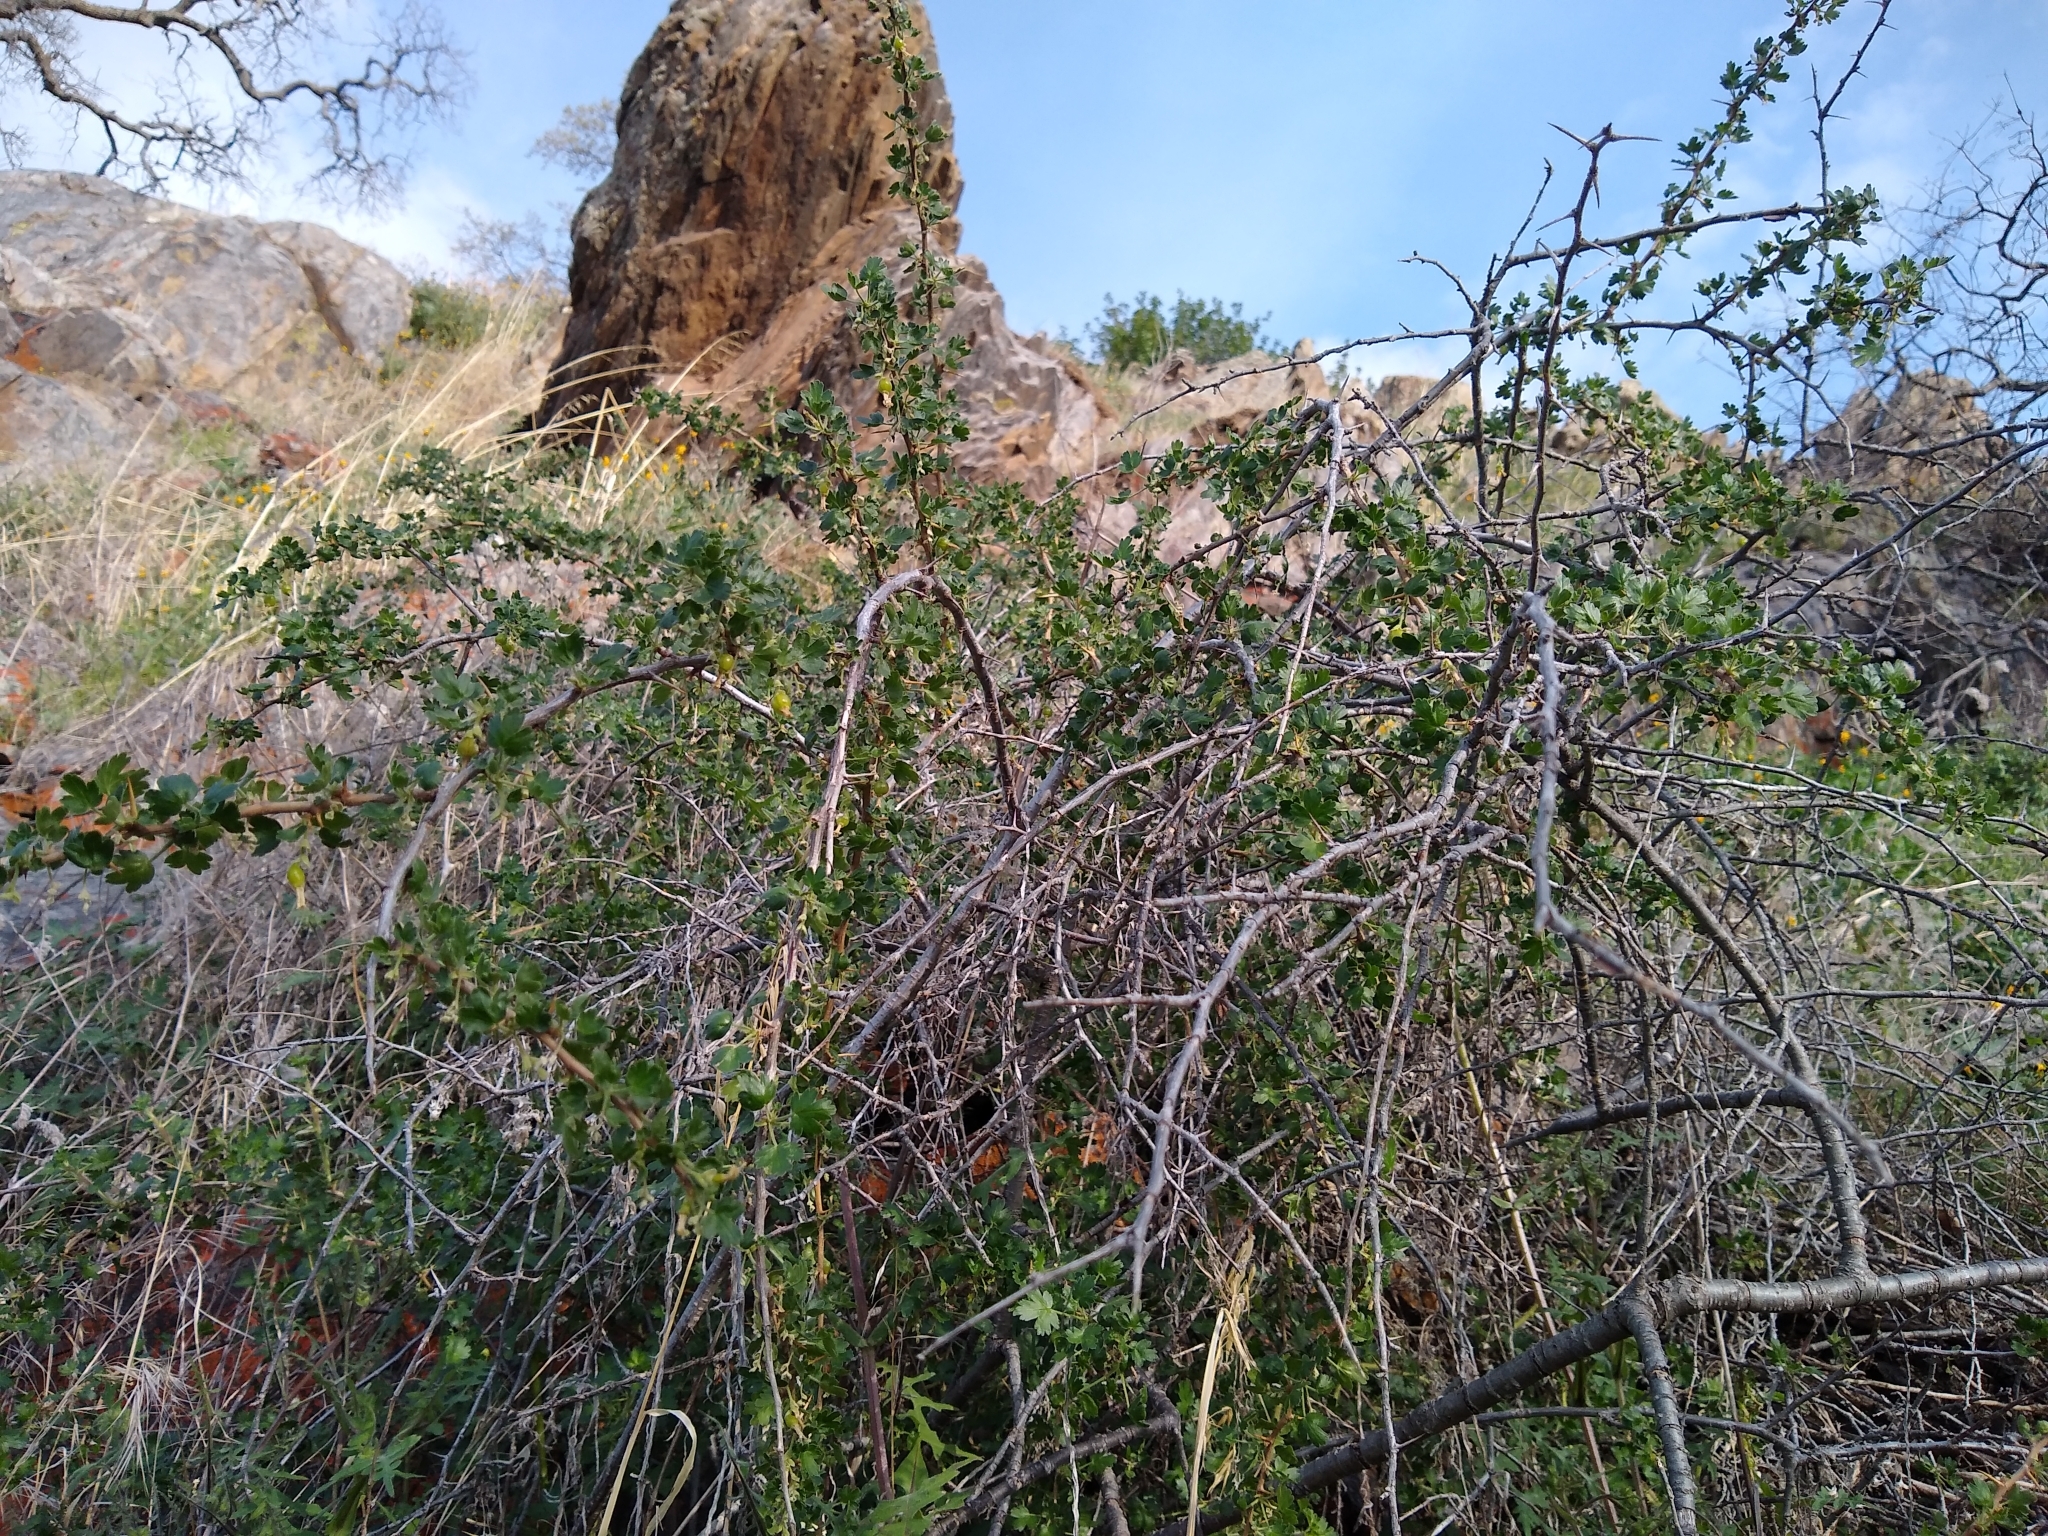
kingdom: Plantae
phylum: Tracheophyta
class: Magnoliopsida
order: Saxifragales
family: Grossulariaceae
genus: Ribes
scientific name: Ribes quercetorum
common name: Oak gooseberry
